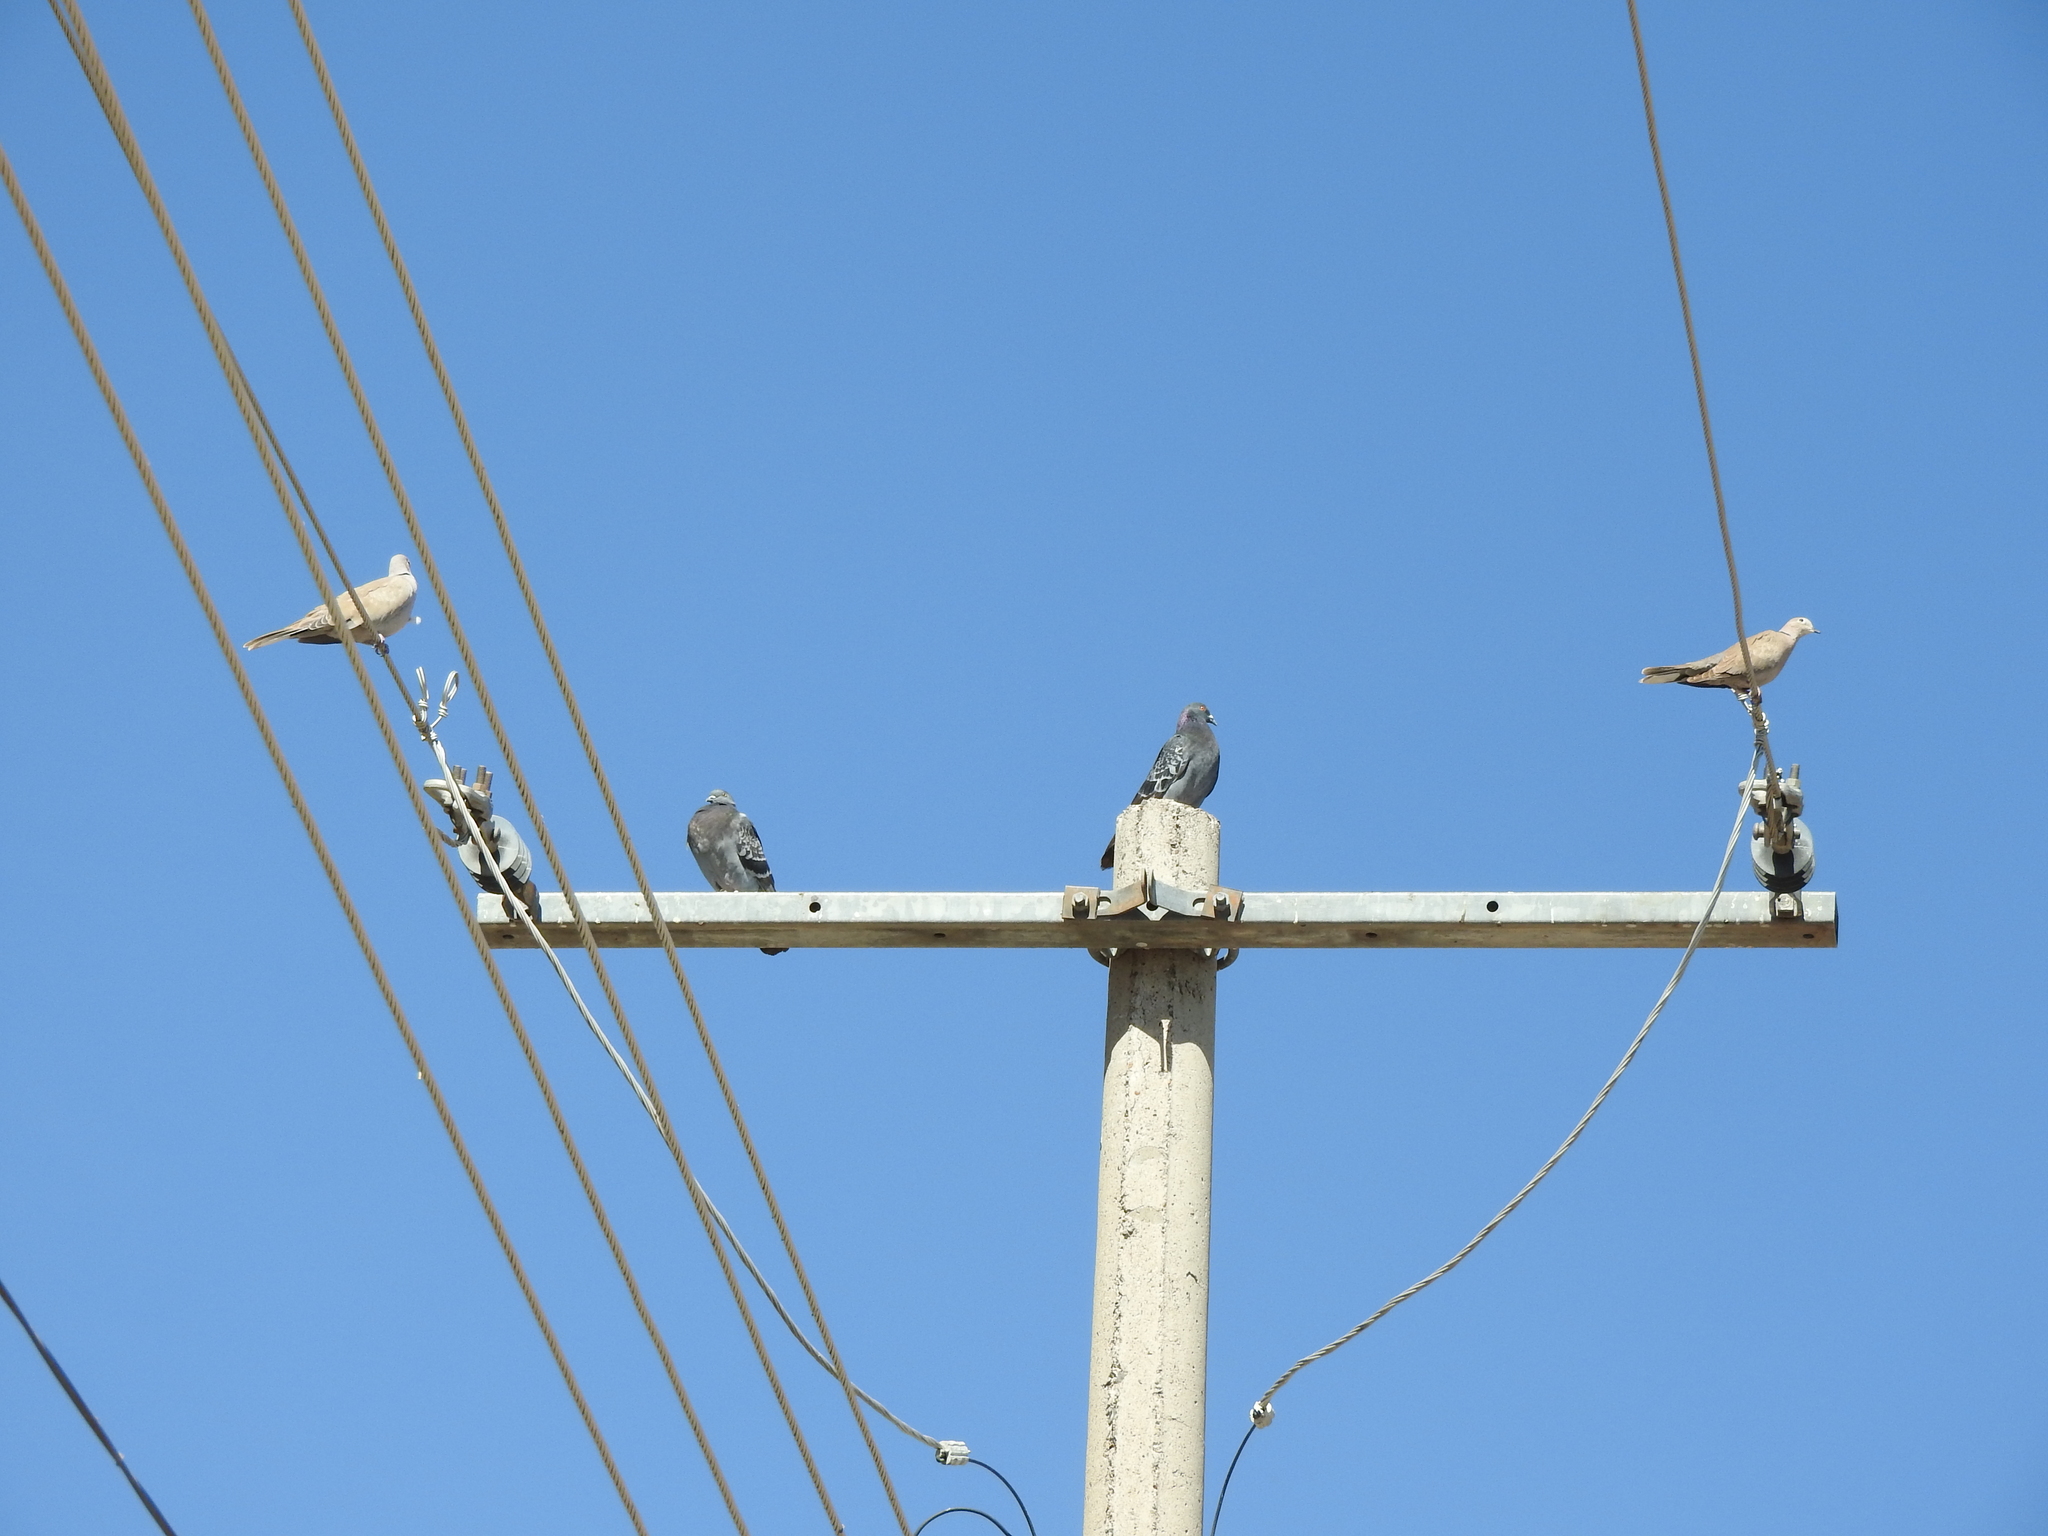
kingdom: Animalia
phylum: Chordata
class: Aves
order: Columbiformes
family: Columbidae
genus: Columba
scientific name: Columba livia
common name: Rock pigeon
